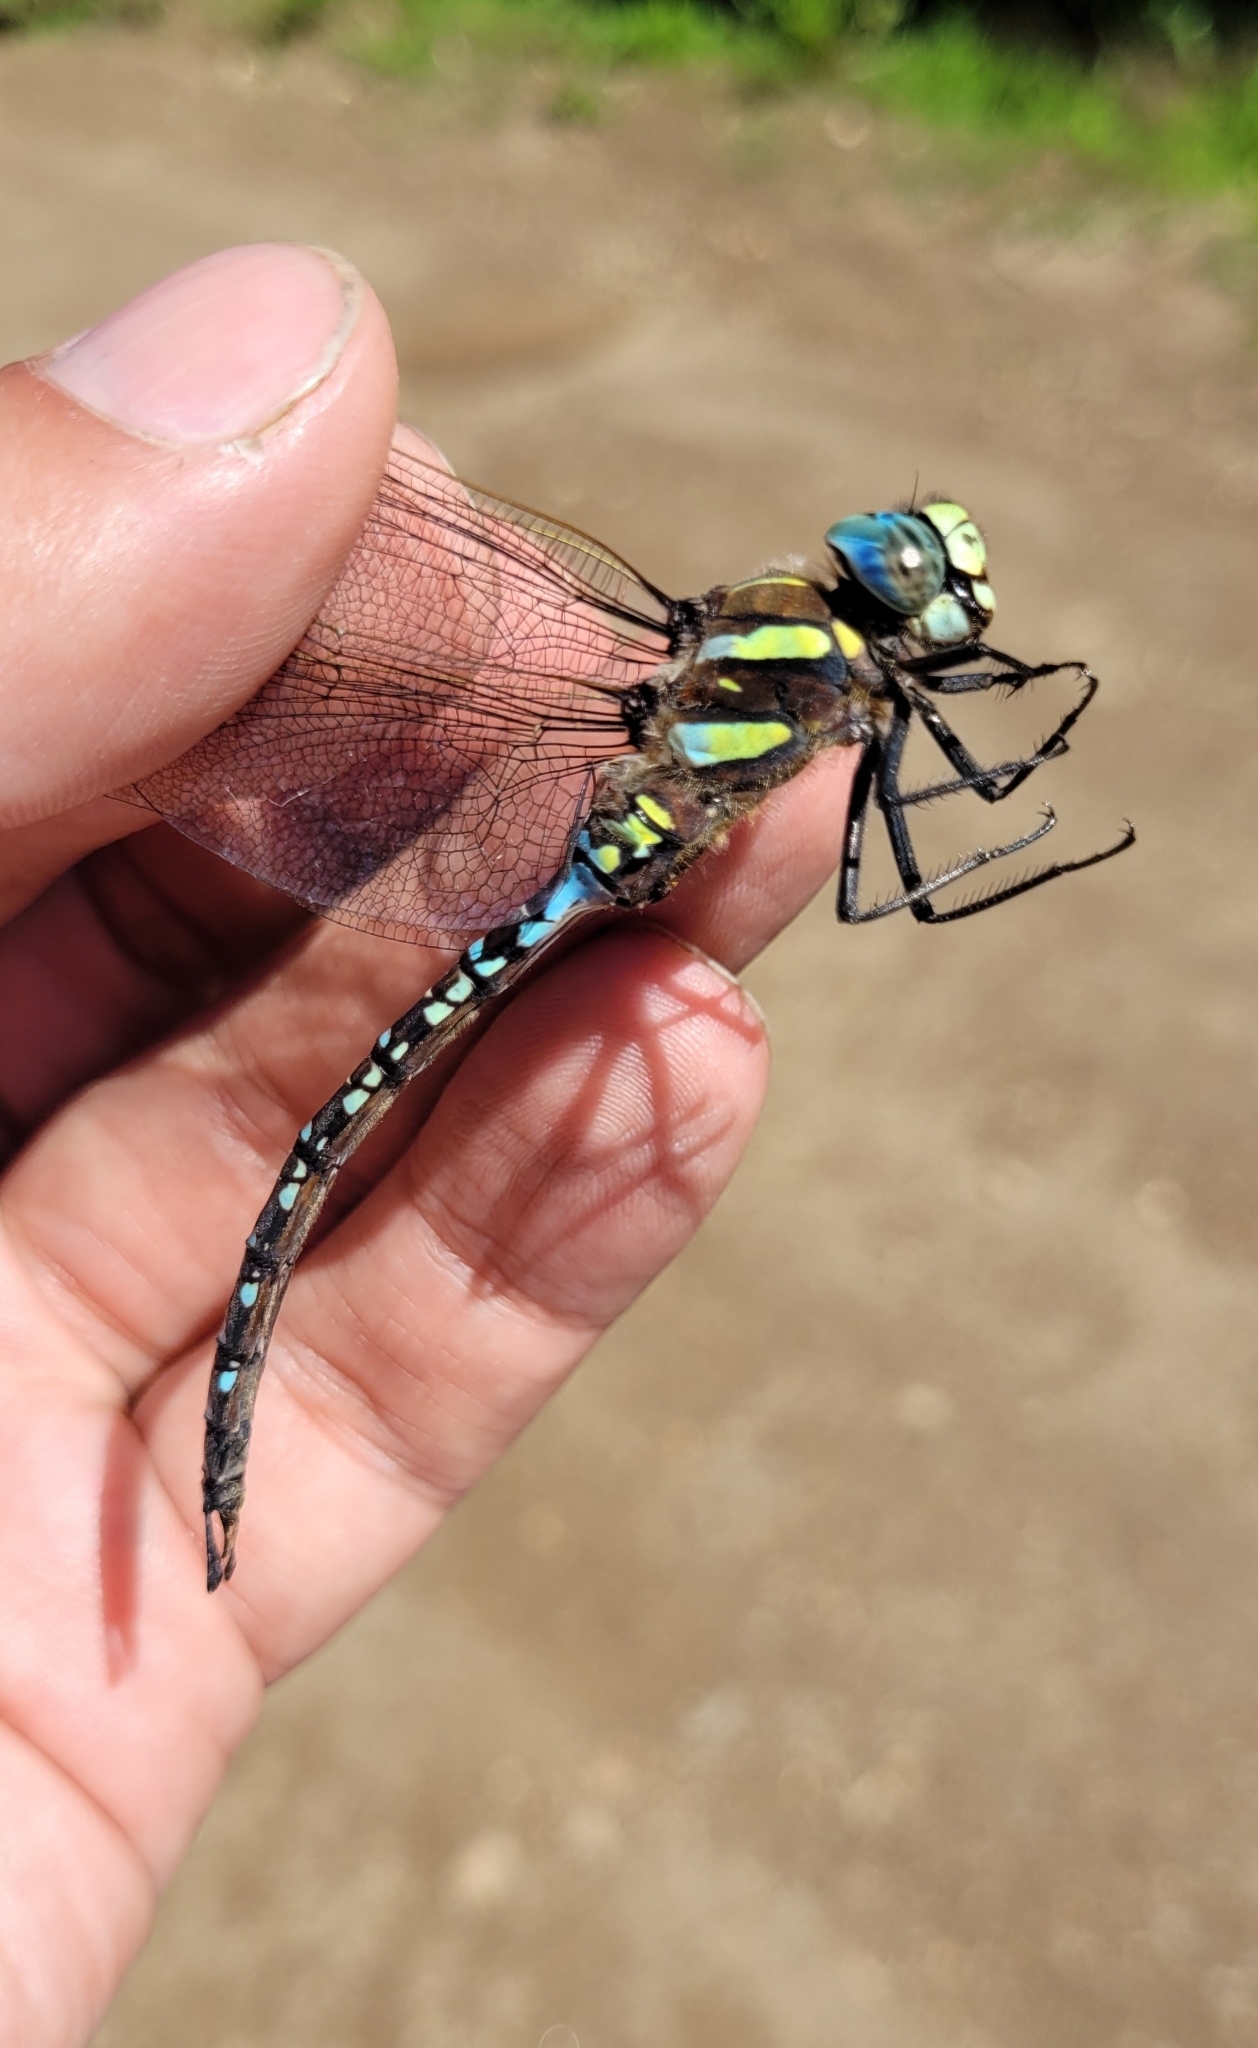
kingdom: Animalia
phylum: Arthropoda
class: Insecta
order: Odonata
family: Aeshnidae
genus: Aeshna
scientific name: Aeshna juncea
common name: Moorland hawker
